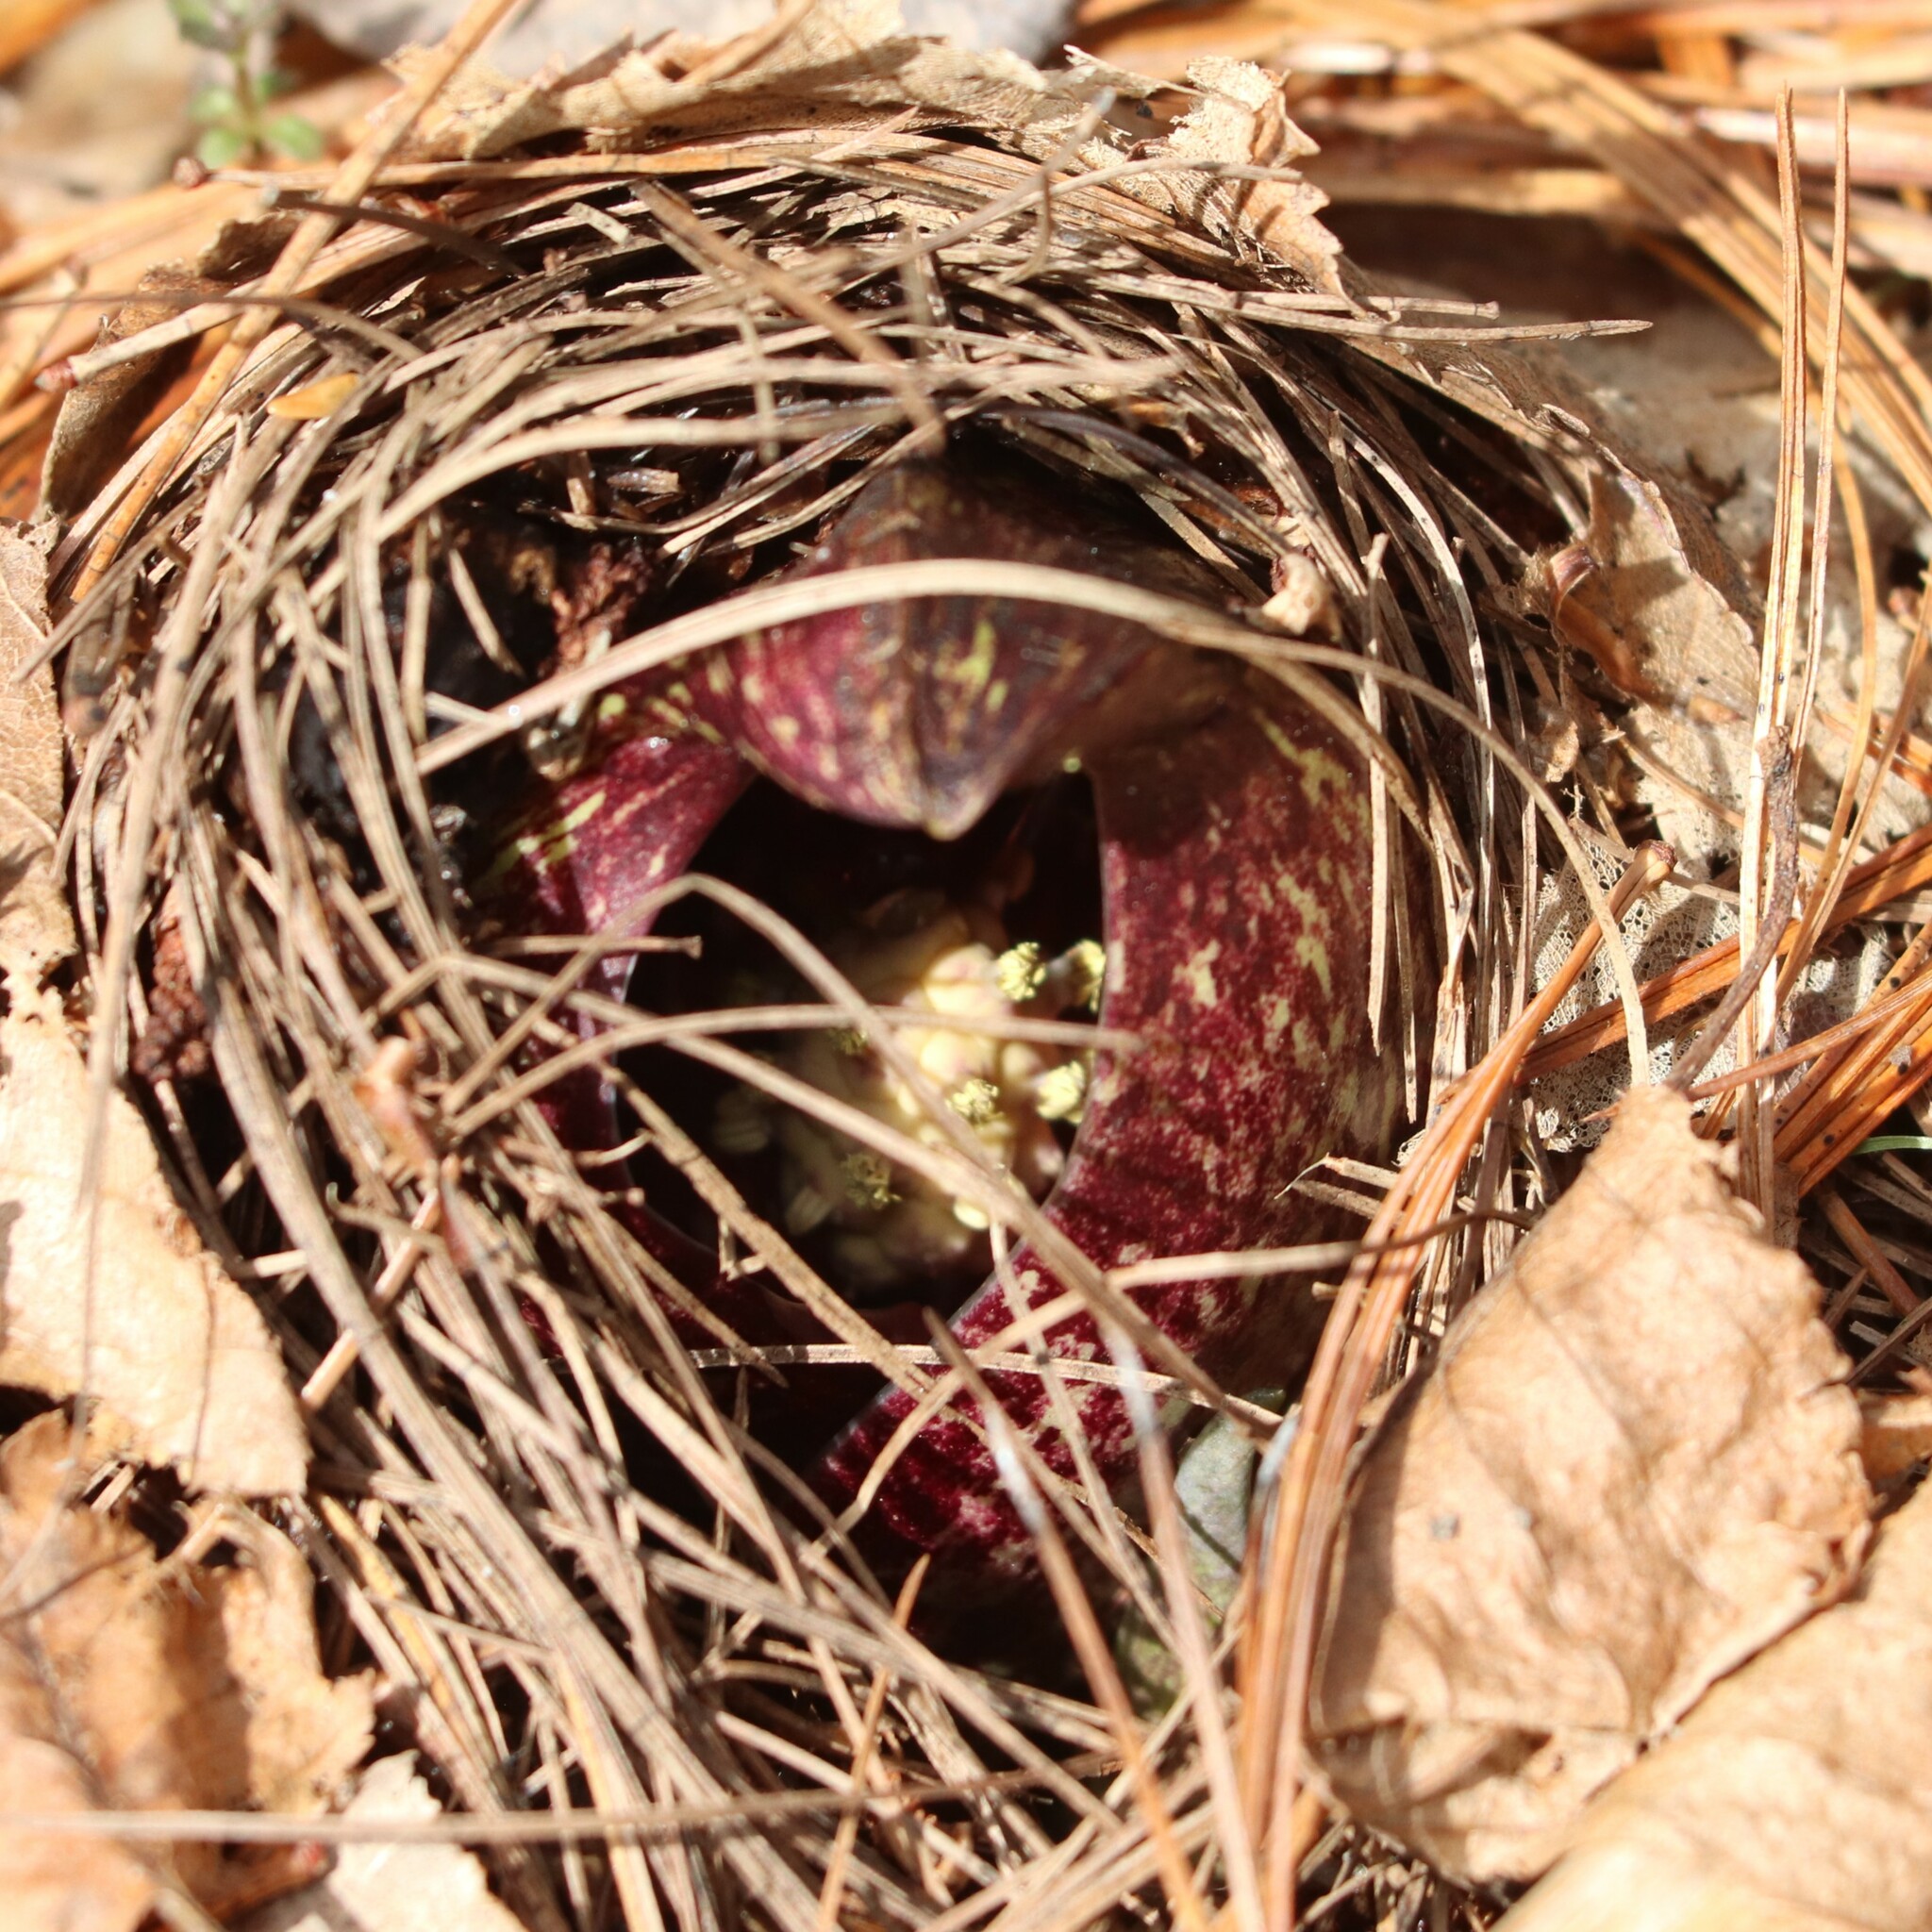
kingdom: Plantae
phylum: Tracheophyta
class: Liliopsida
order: Alismatales
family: Araceae
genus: Symplocarpus
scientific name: Symplocarpus foetidus
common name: Eastern skunk cabbage
